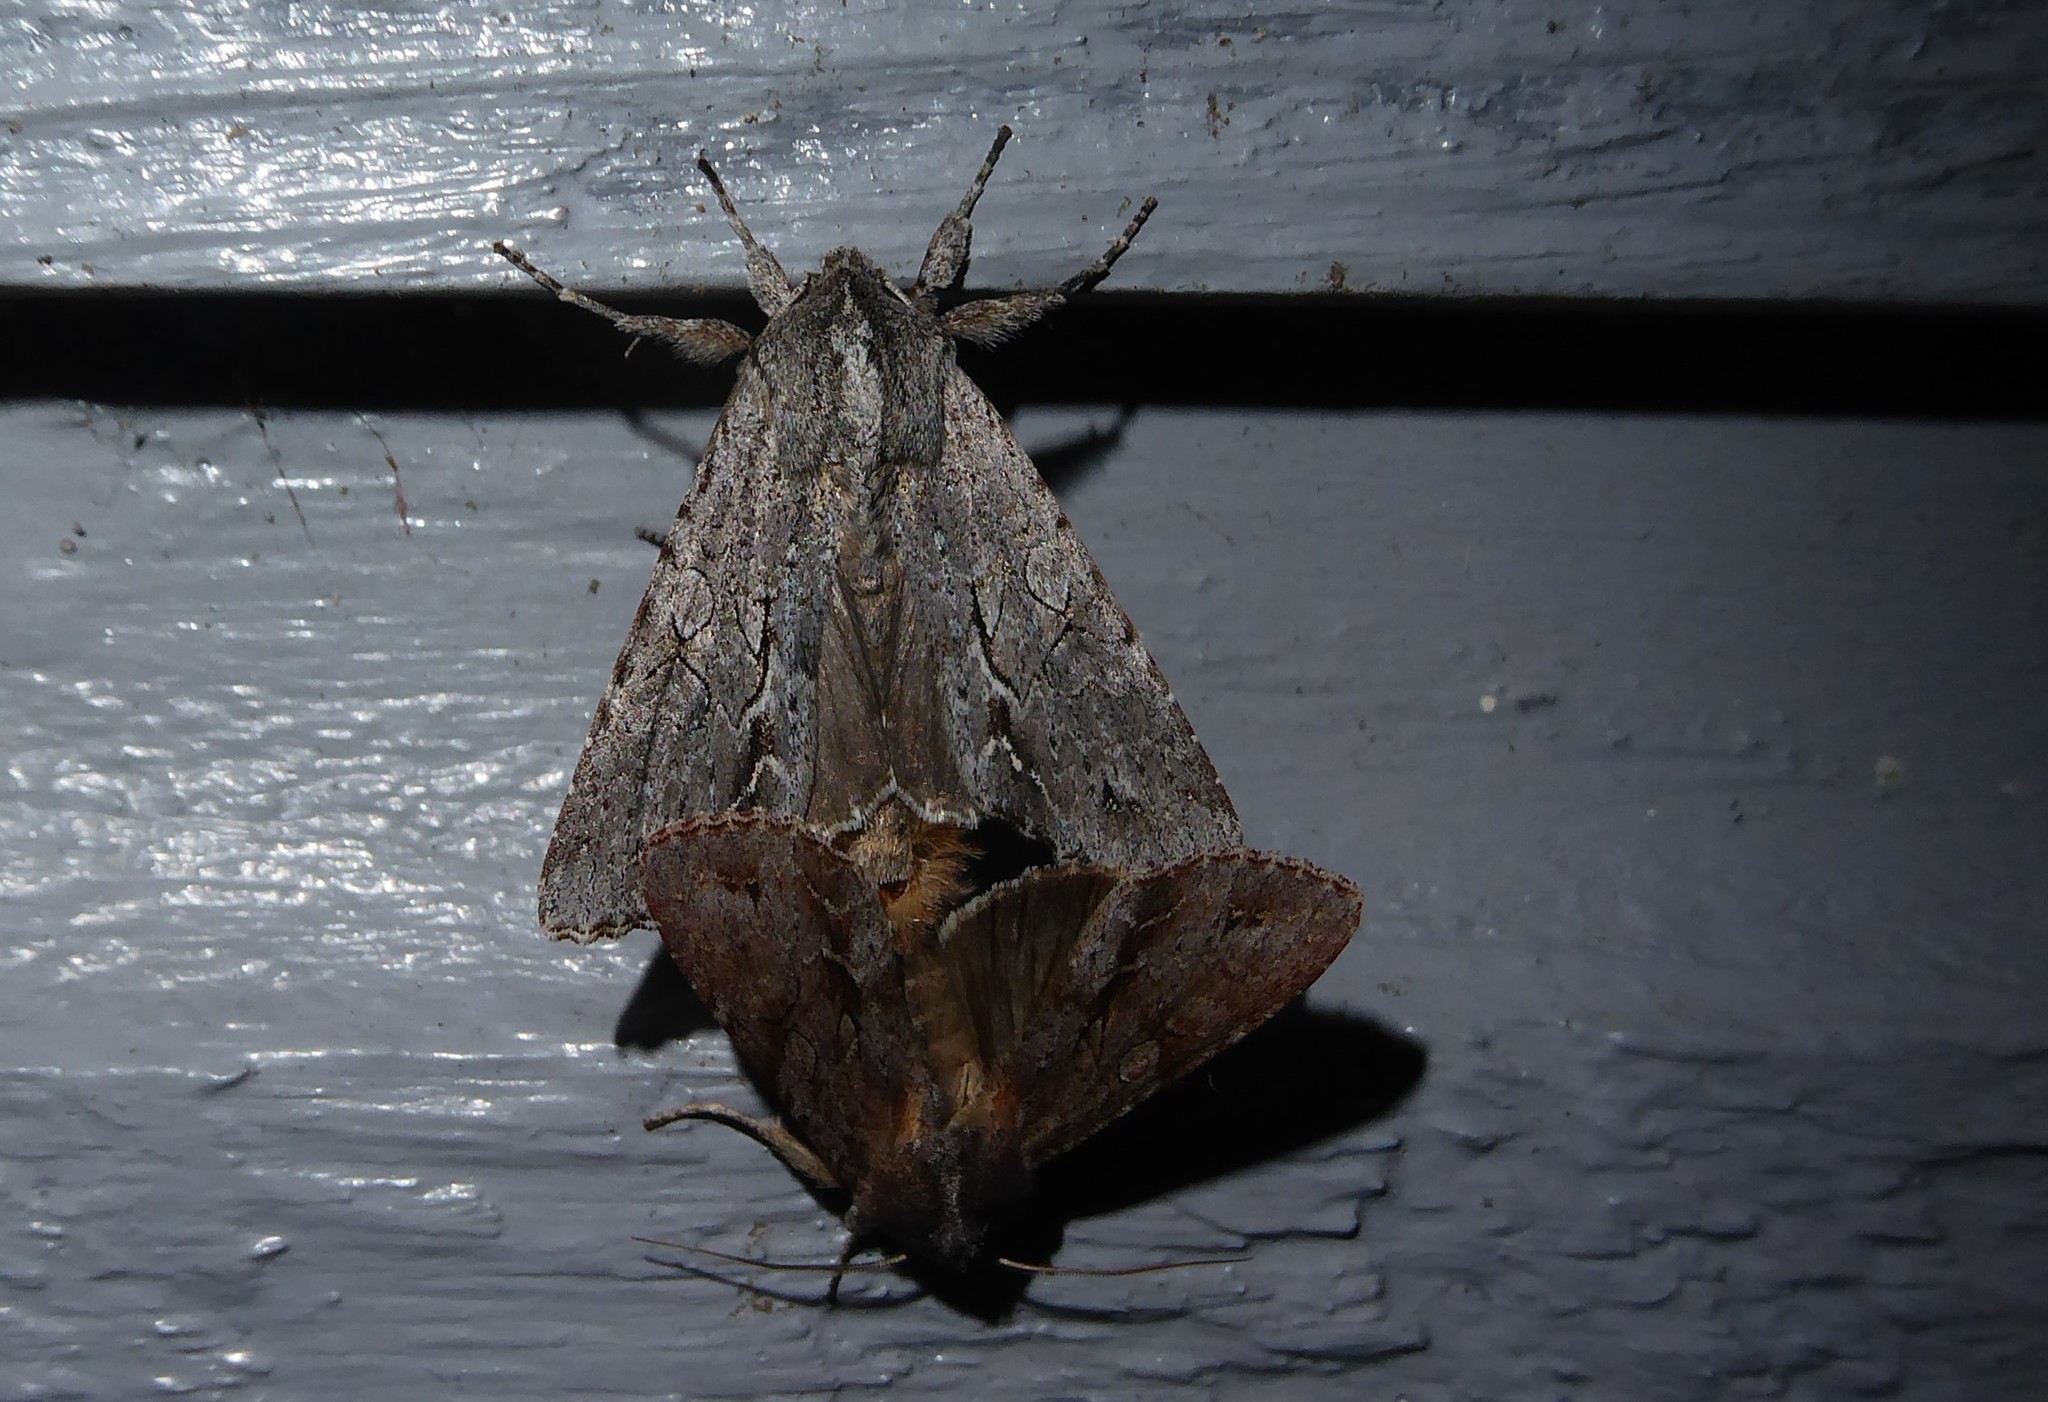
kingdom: Animalia
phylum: Arthropoda
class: Insecta
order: Lepidoptera
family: Noctuidae
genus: Ichneutica
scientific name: Ichneutica
